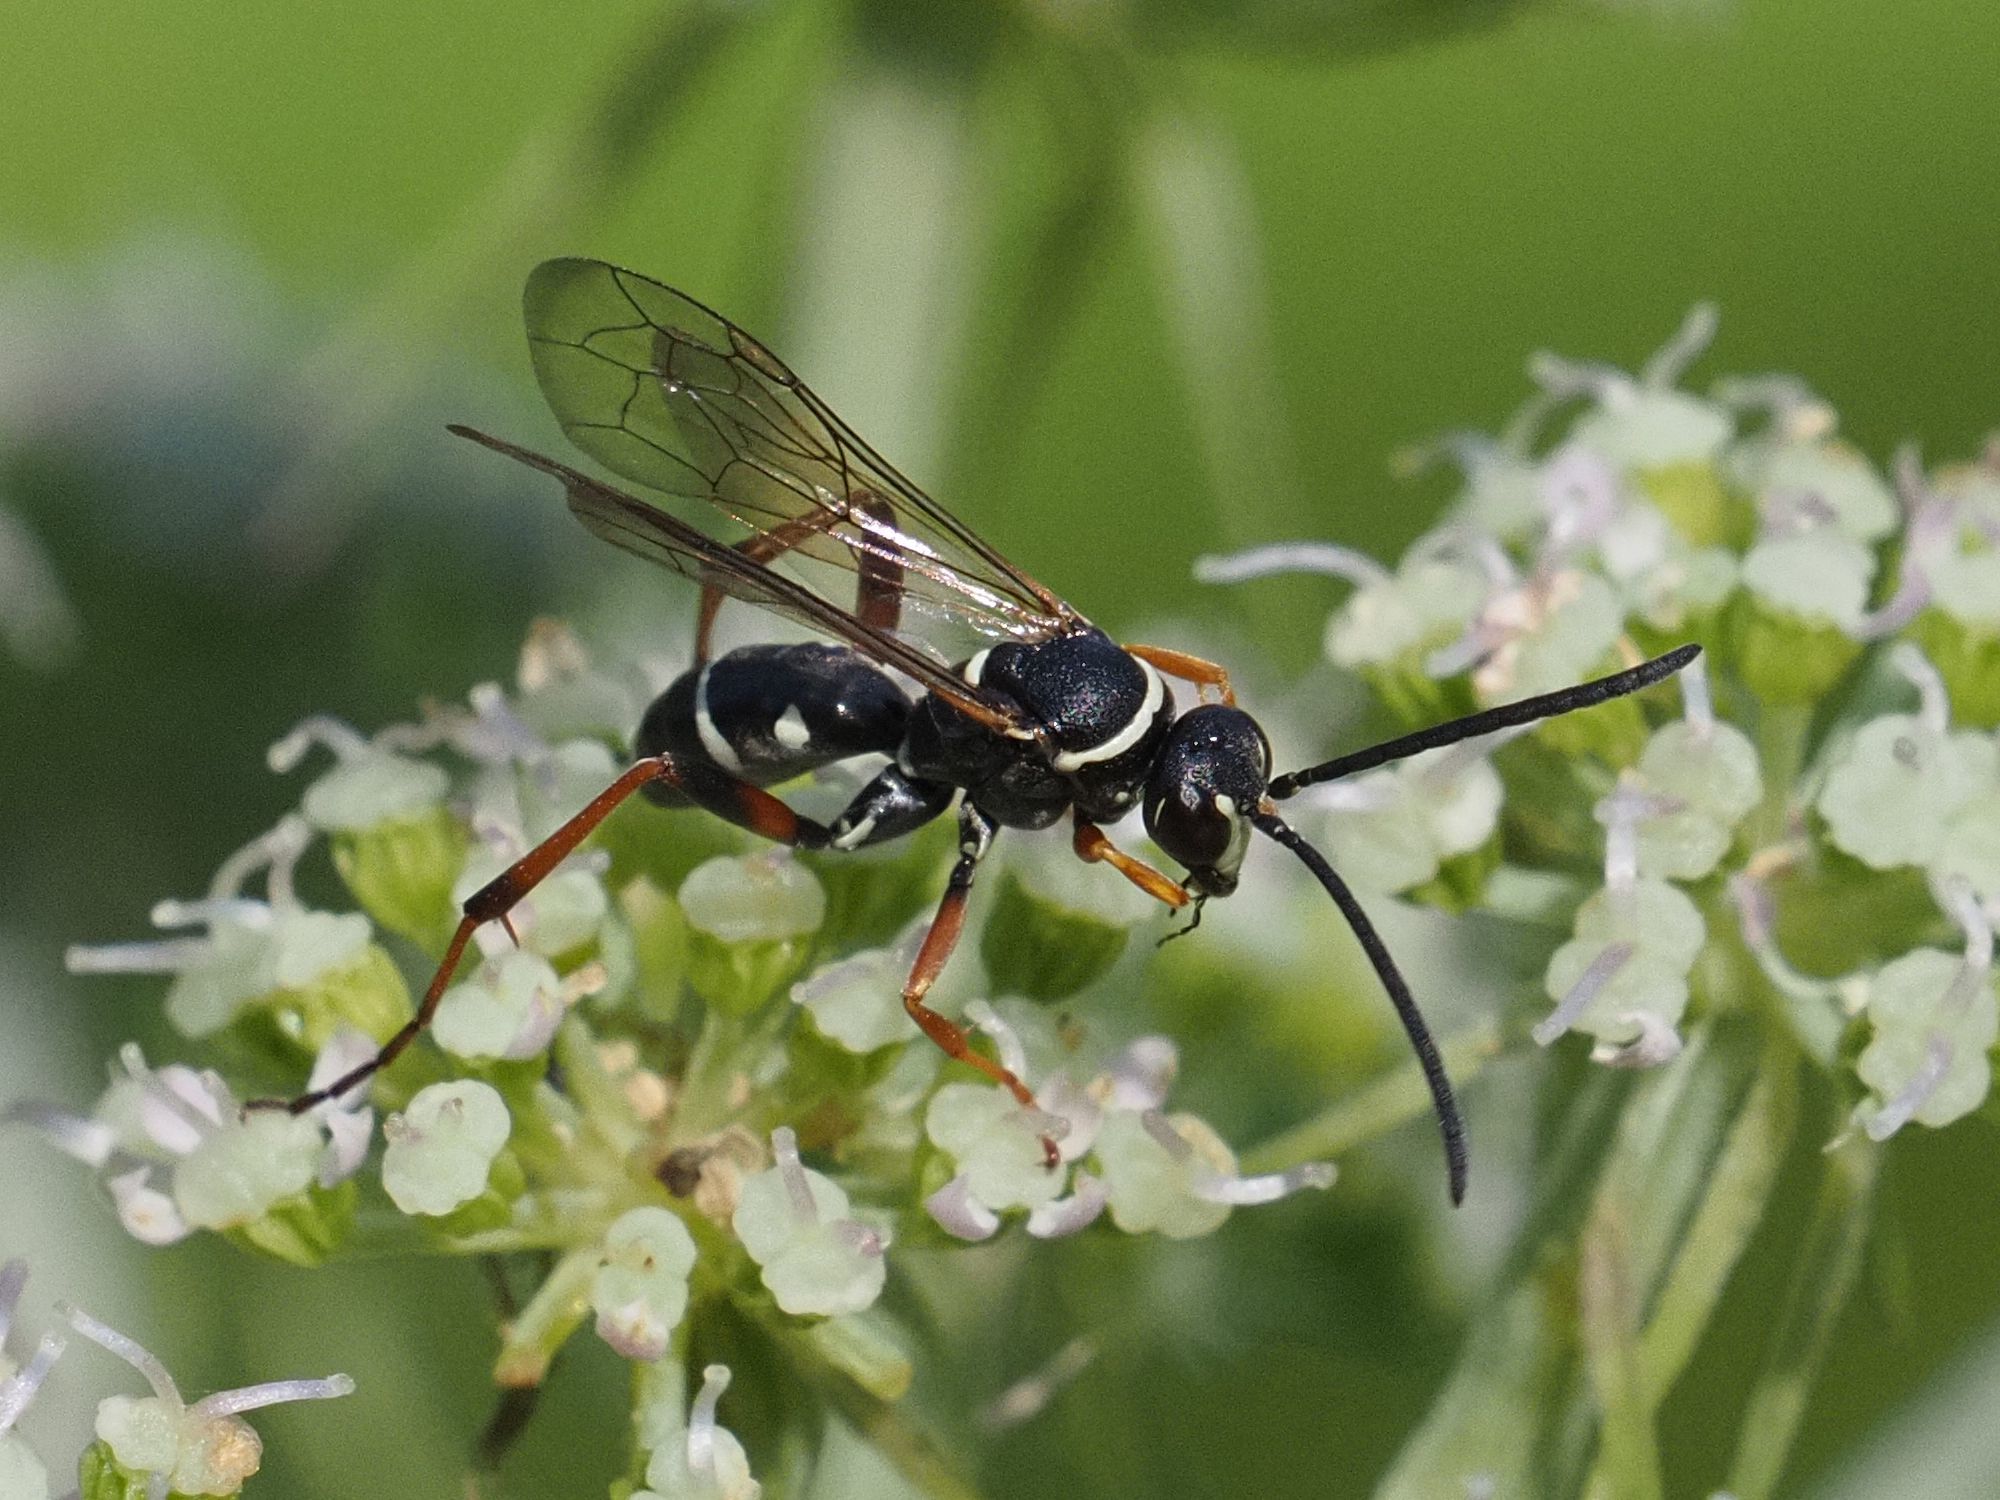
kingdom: Animalia
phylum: Arthropoda
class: Insecta
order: Hymenoptera
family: Pompilidae
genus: Ceropales
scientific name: Ceropales maculata
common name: Spider wasp
